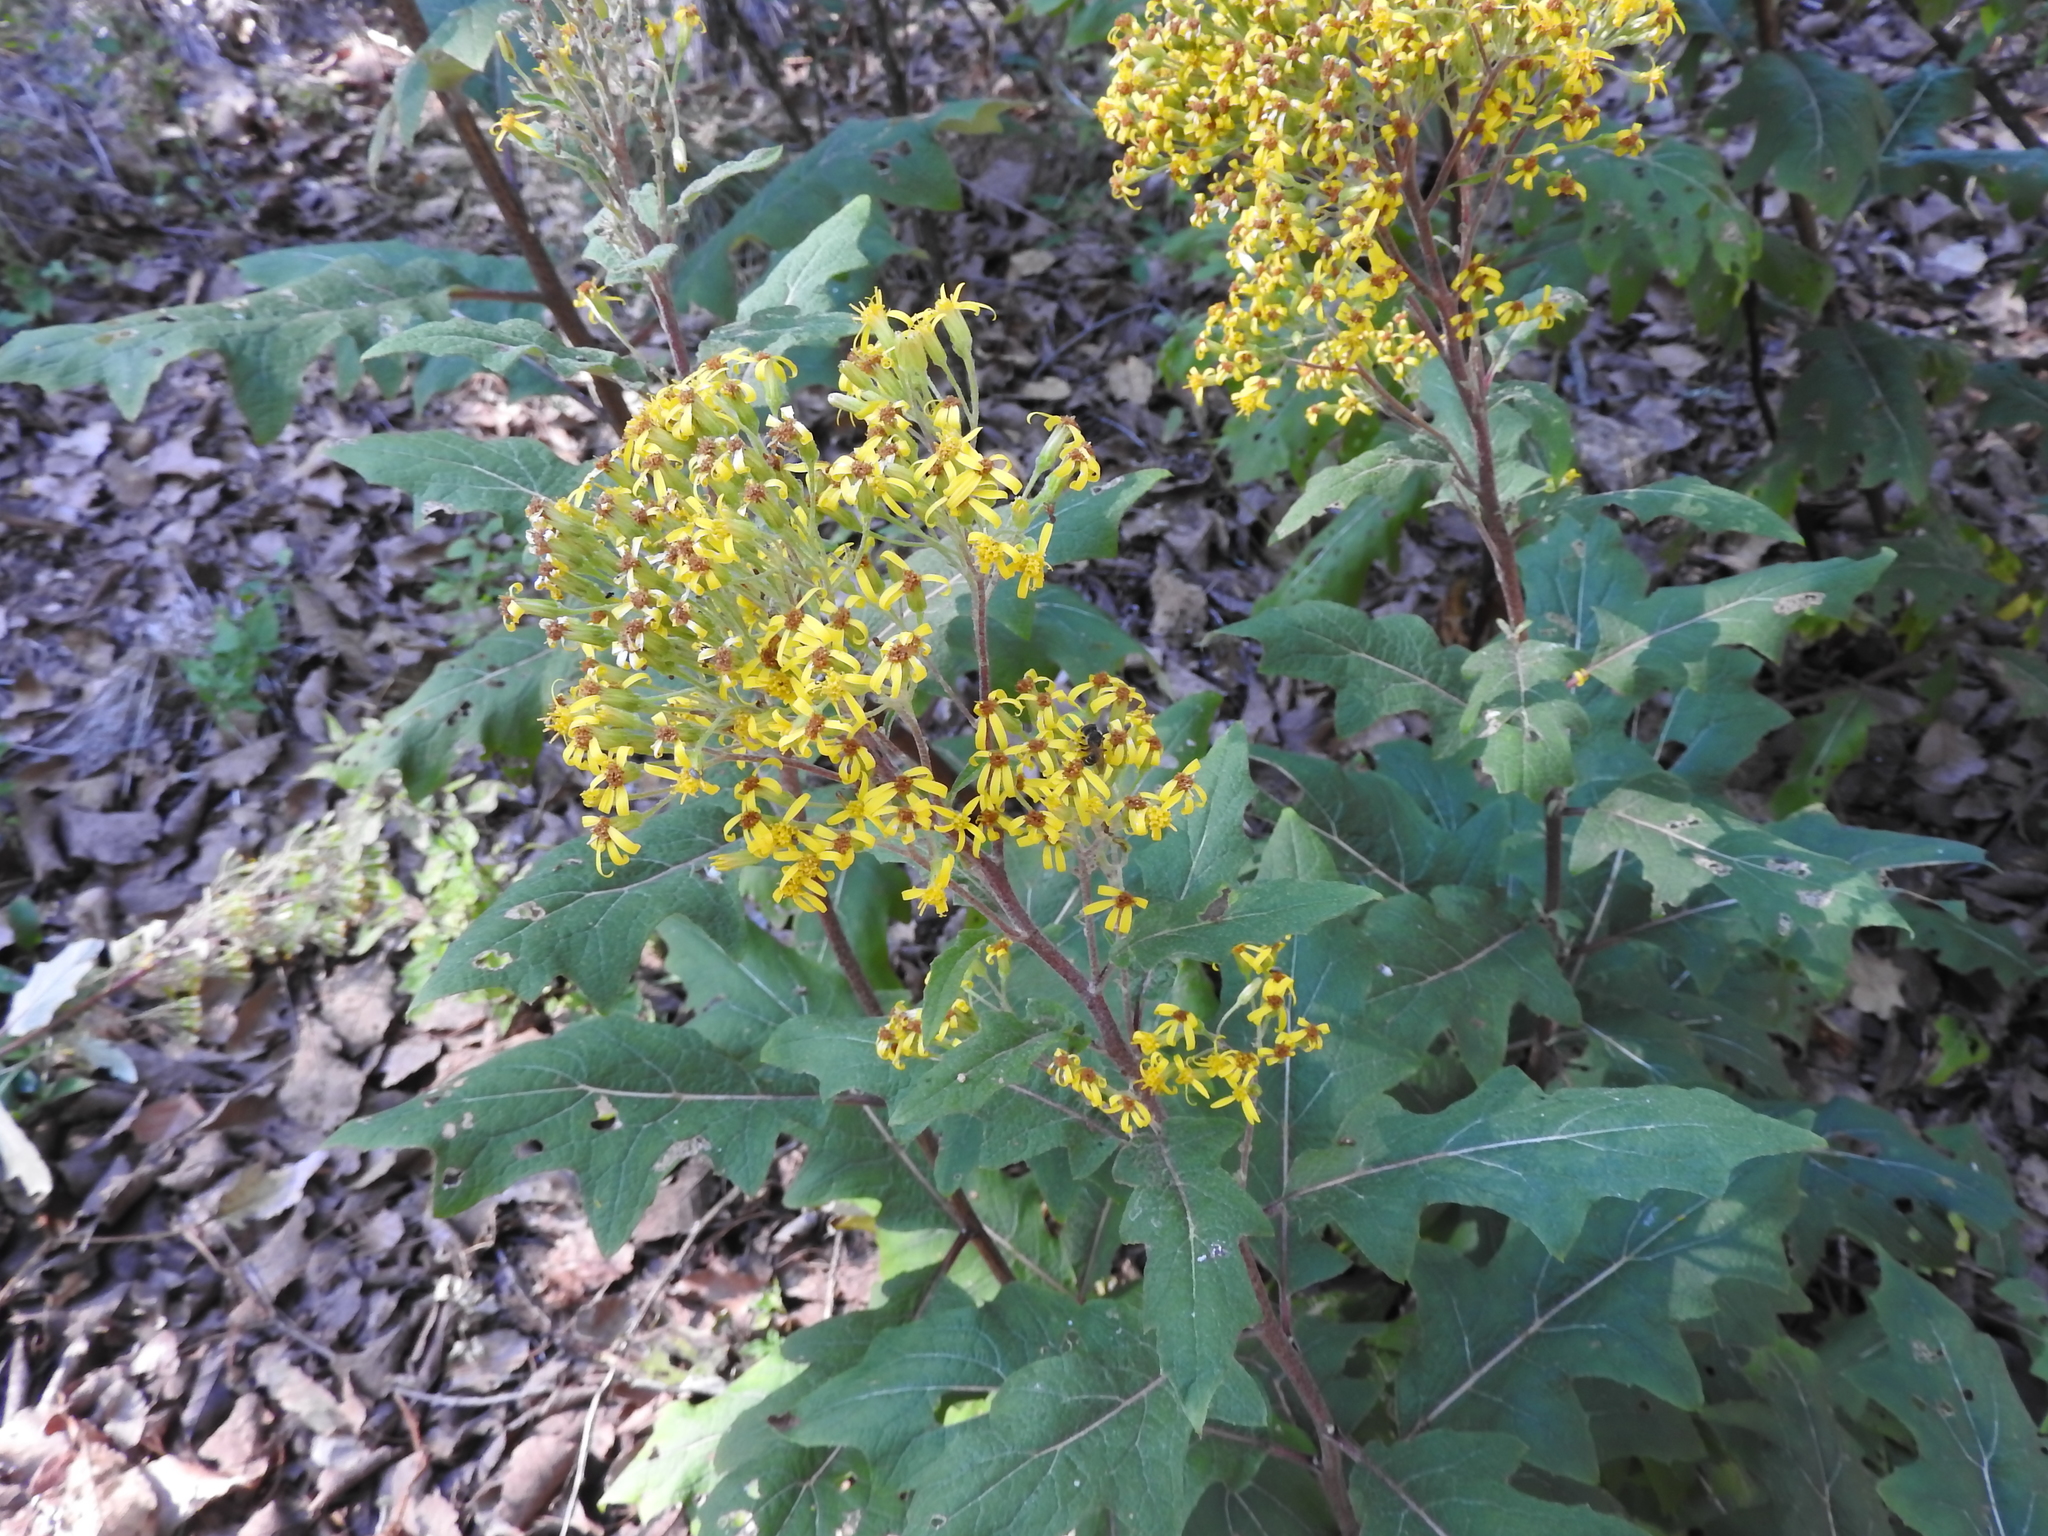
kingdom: Plantae
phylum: Tracheophyta
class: Magnoliopsida
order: Asterales
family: Asteraceae
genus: Roldana
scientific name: Roldana candicans
